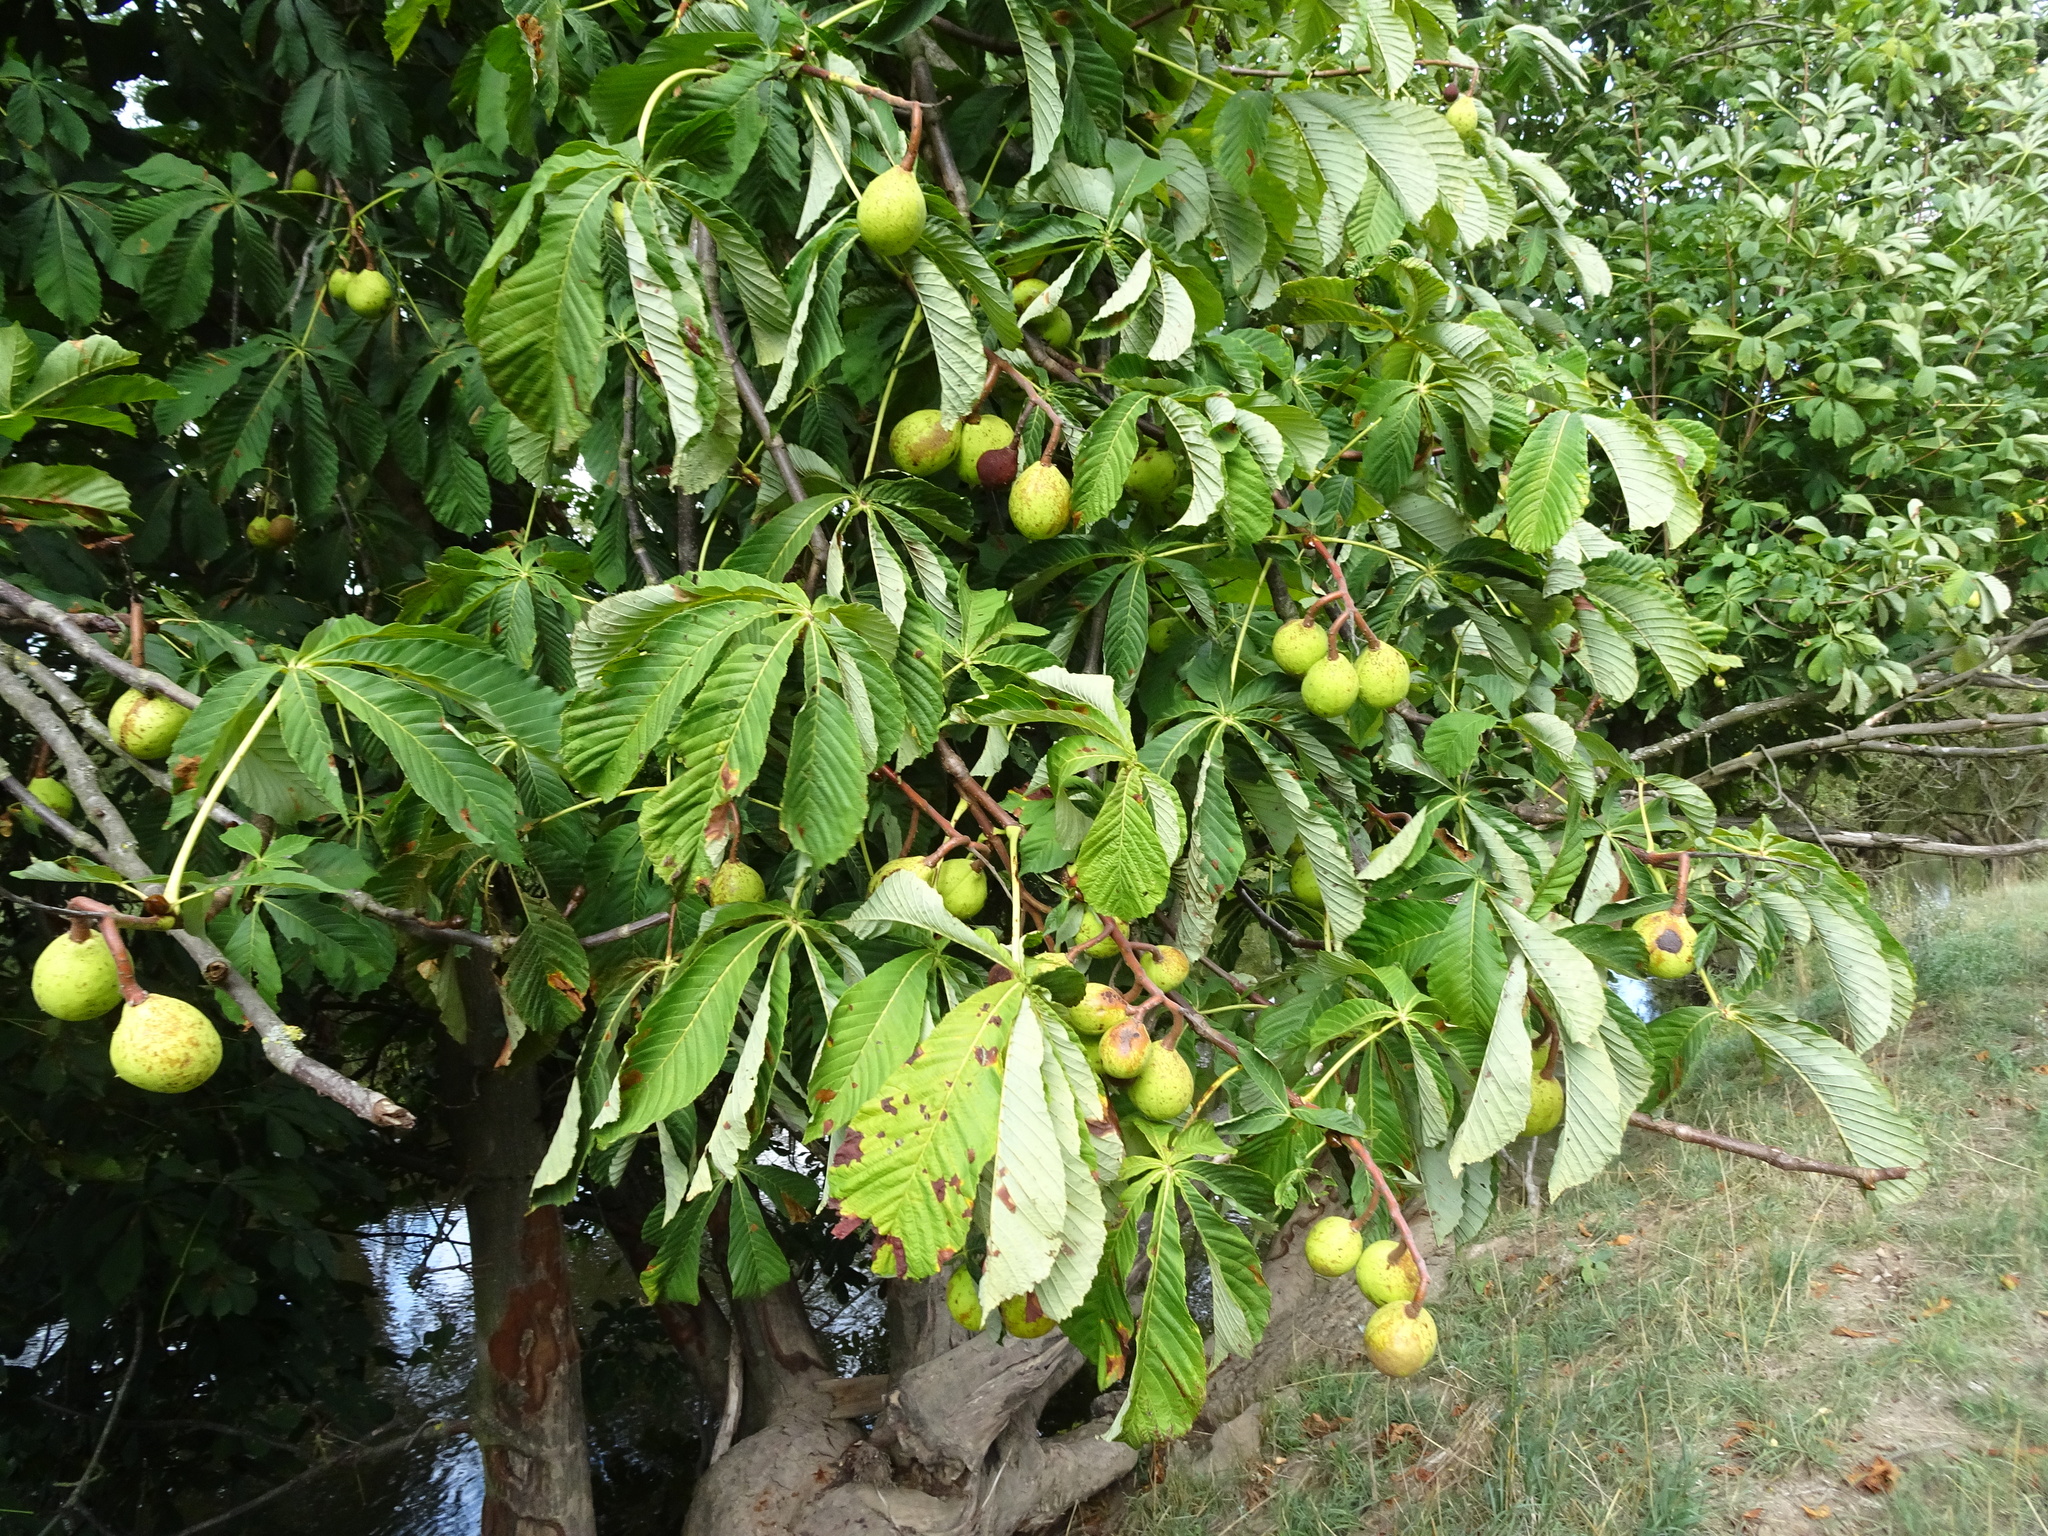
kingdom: Plantae
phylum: Tracheophyta
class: Magnoliopsida
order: Sapindales
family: Sapindaceae
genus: Aesculus
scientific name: Aesculus hippocastanum
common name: Horse-chestnut
